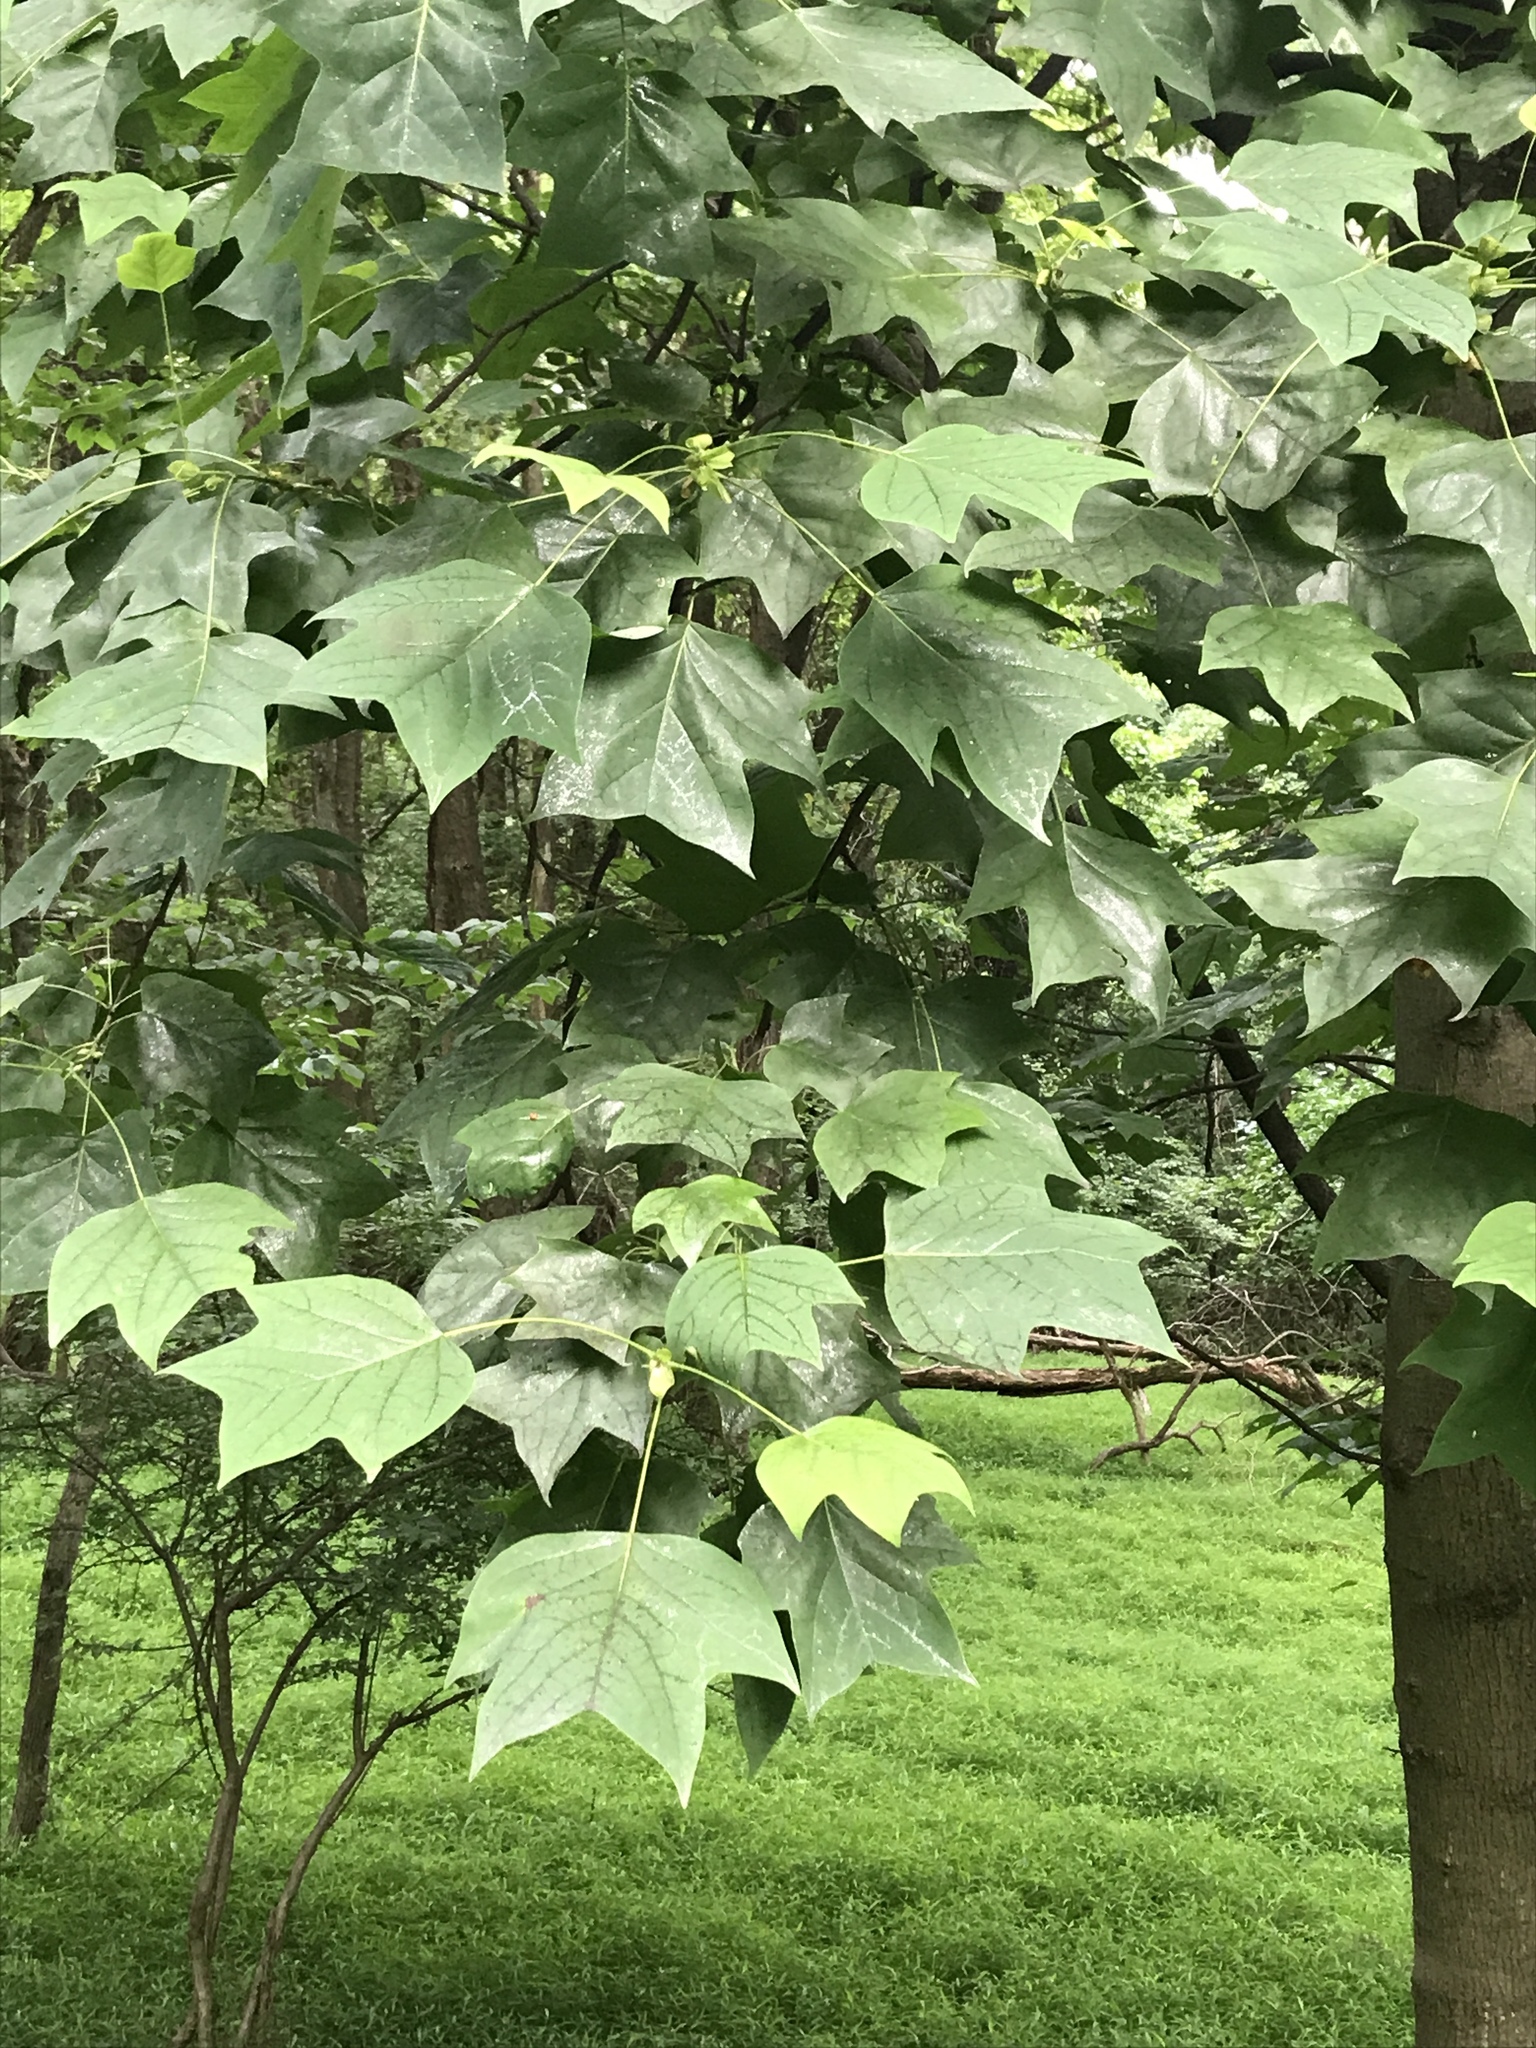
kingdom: Plantae
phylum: Tracheophyta
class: Magnoliopsida
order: Magnoliales
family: Magnoliaceae
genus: Liriodendron
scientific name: Liriodendron tulipifera
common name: Tulip tree
